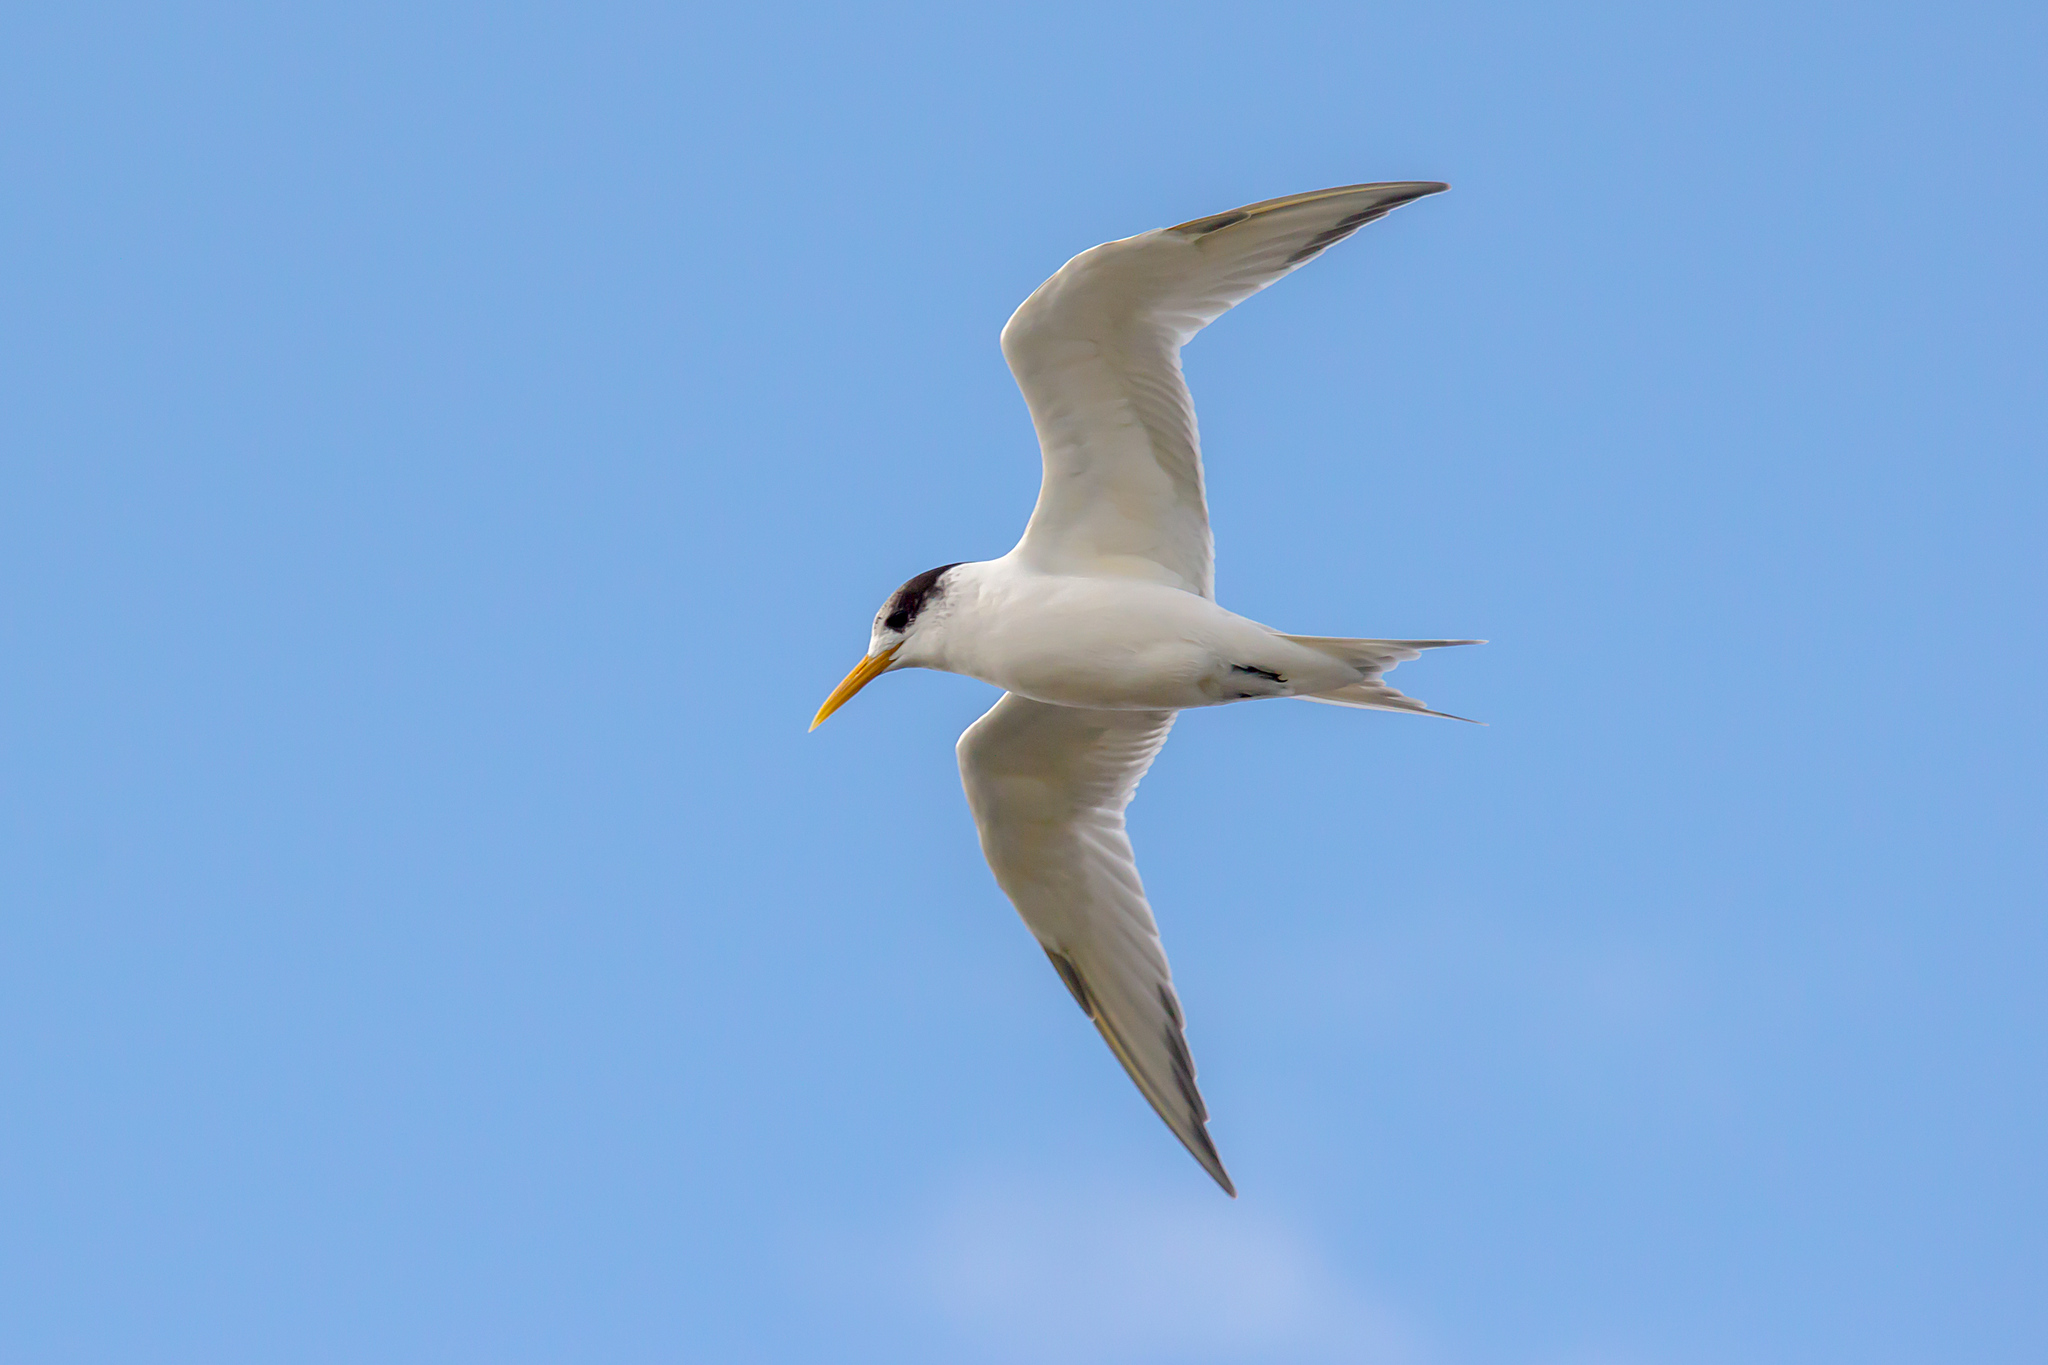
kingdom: Animalia
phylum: Chordata
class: Aves
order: Charadriiformes
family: Laridae
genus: Thalasseus
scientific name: Thalasseus bergii
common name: Greater crested tern
